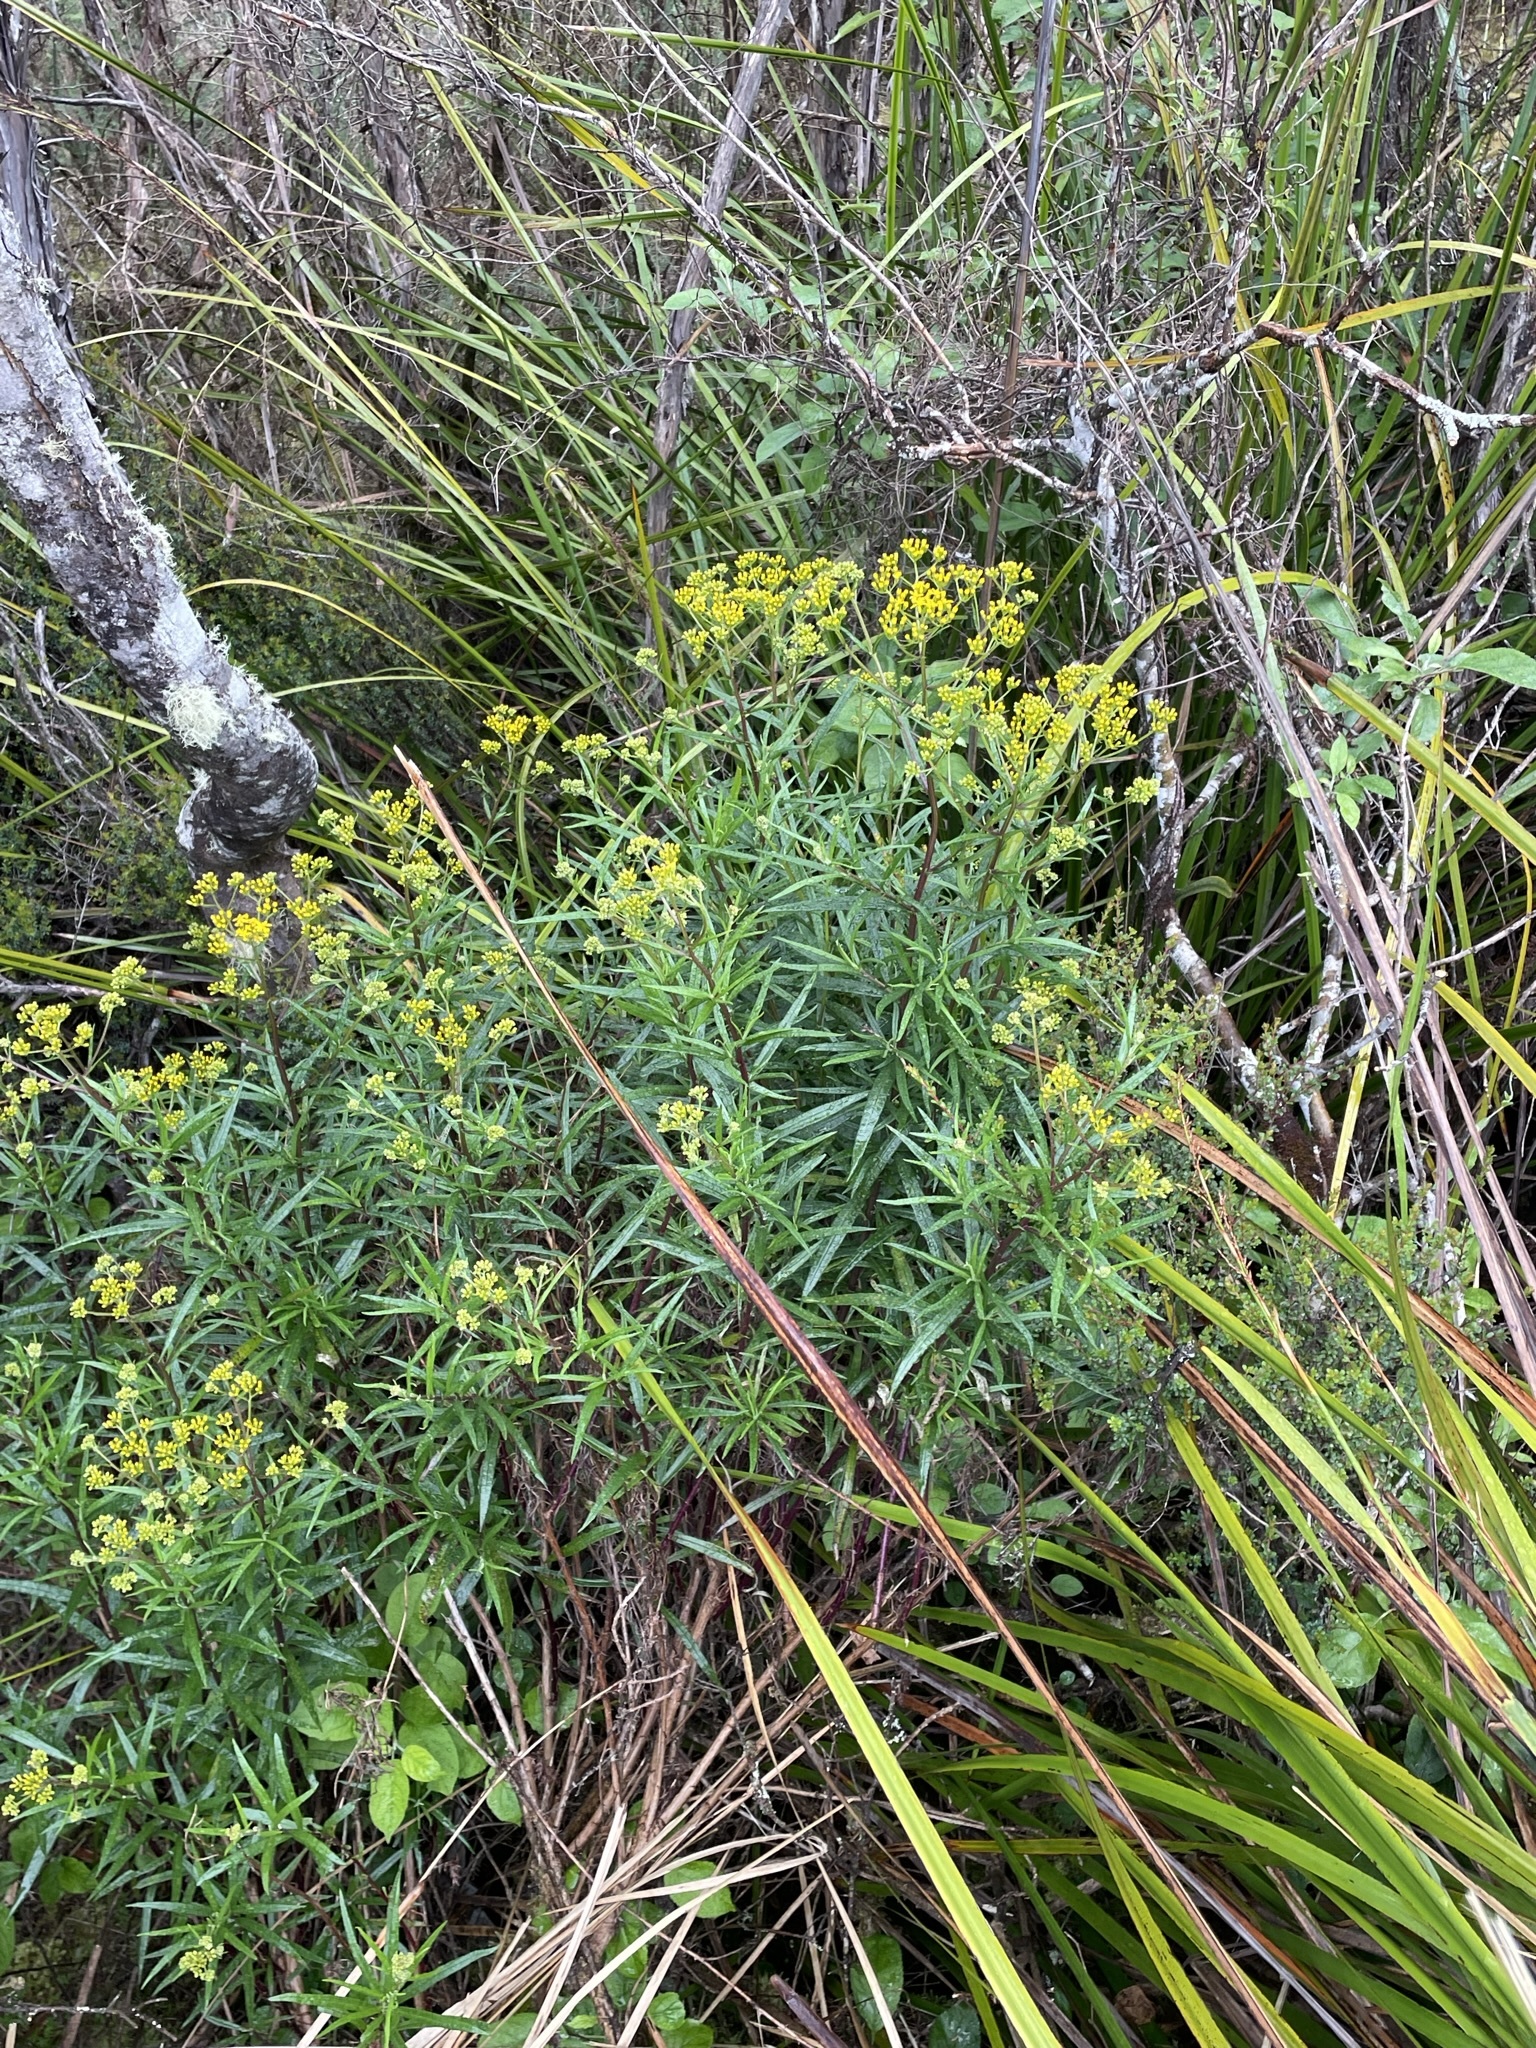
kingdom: Plantae
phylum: Tracheophyta
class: Magnoliopsida
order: Asterales
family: Asteraceae
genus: Senecio
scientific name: Senecio linearifolius
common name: Fireweed groundsel
